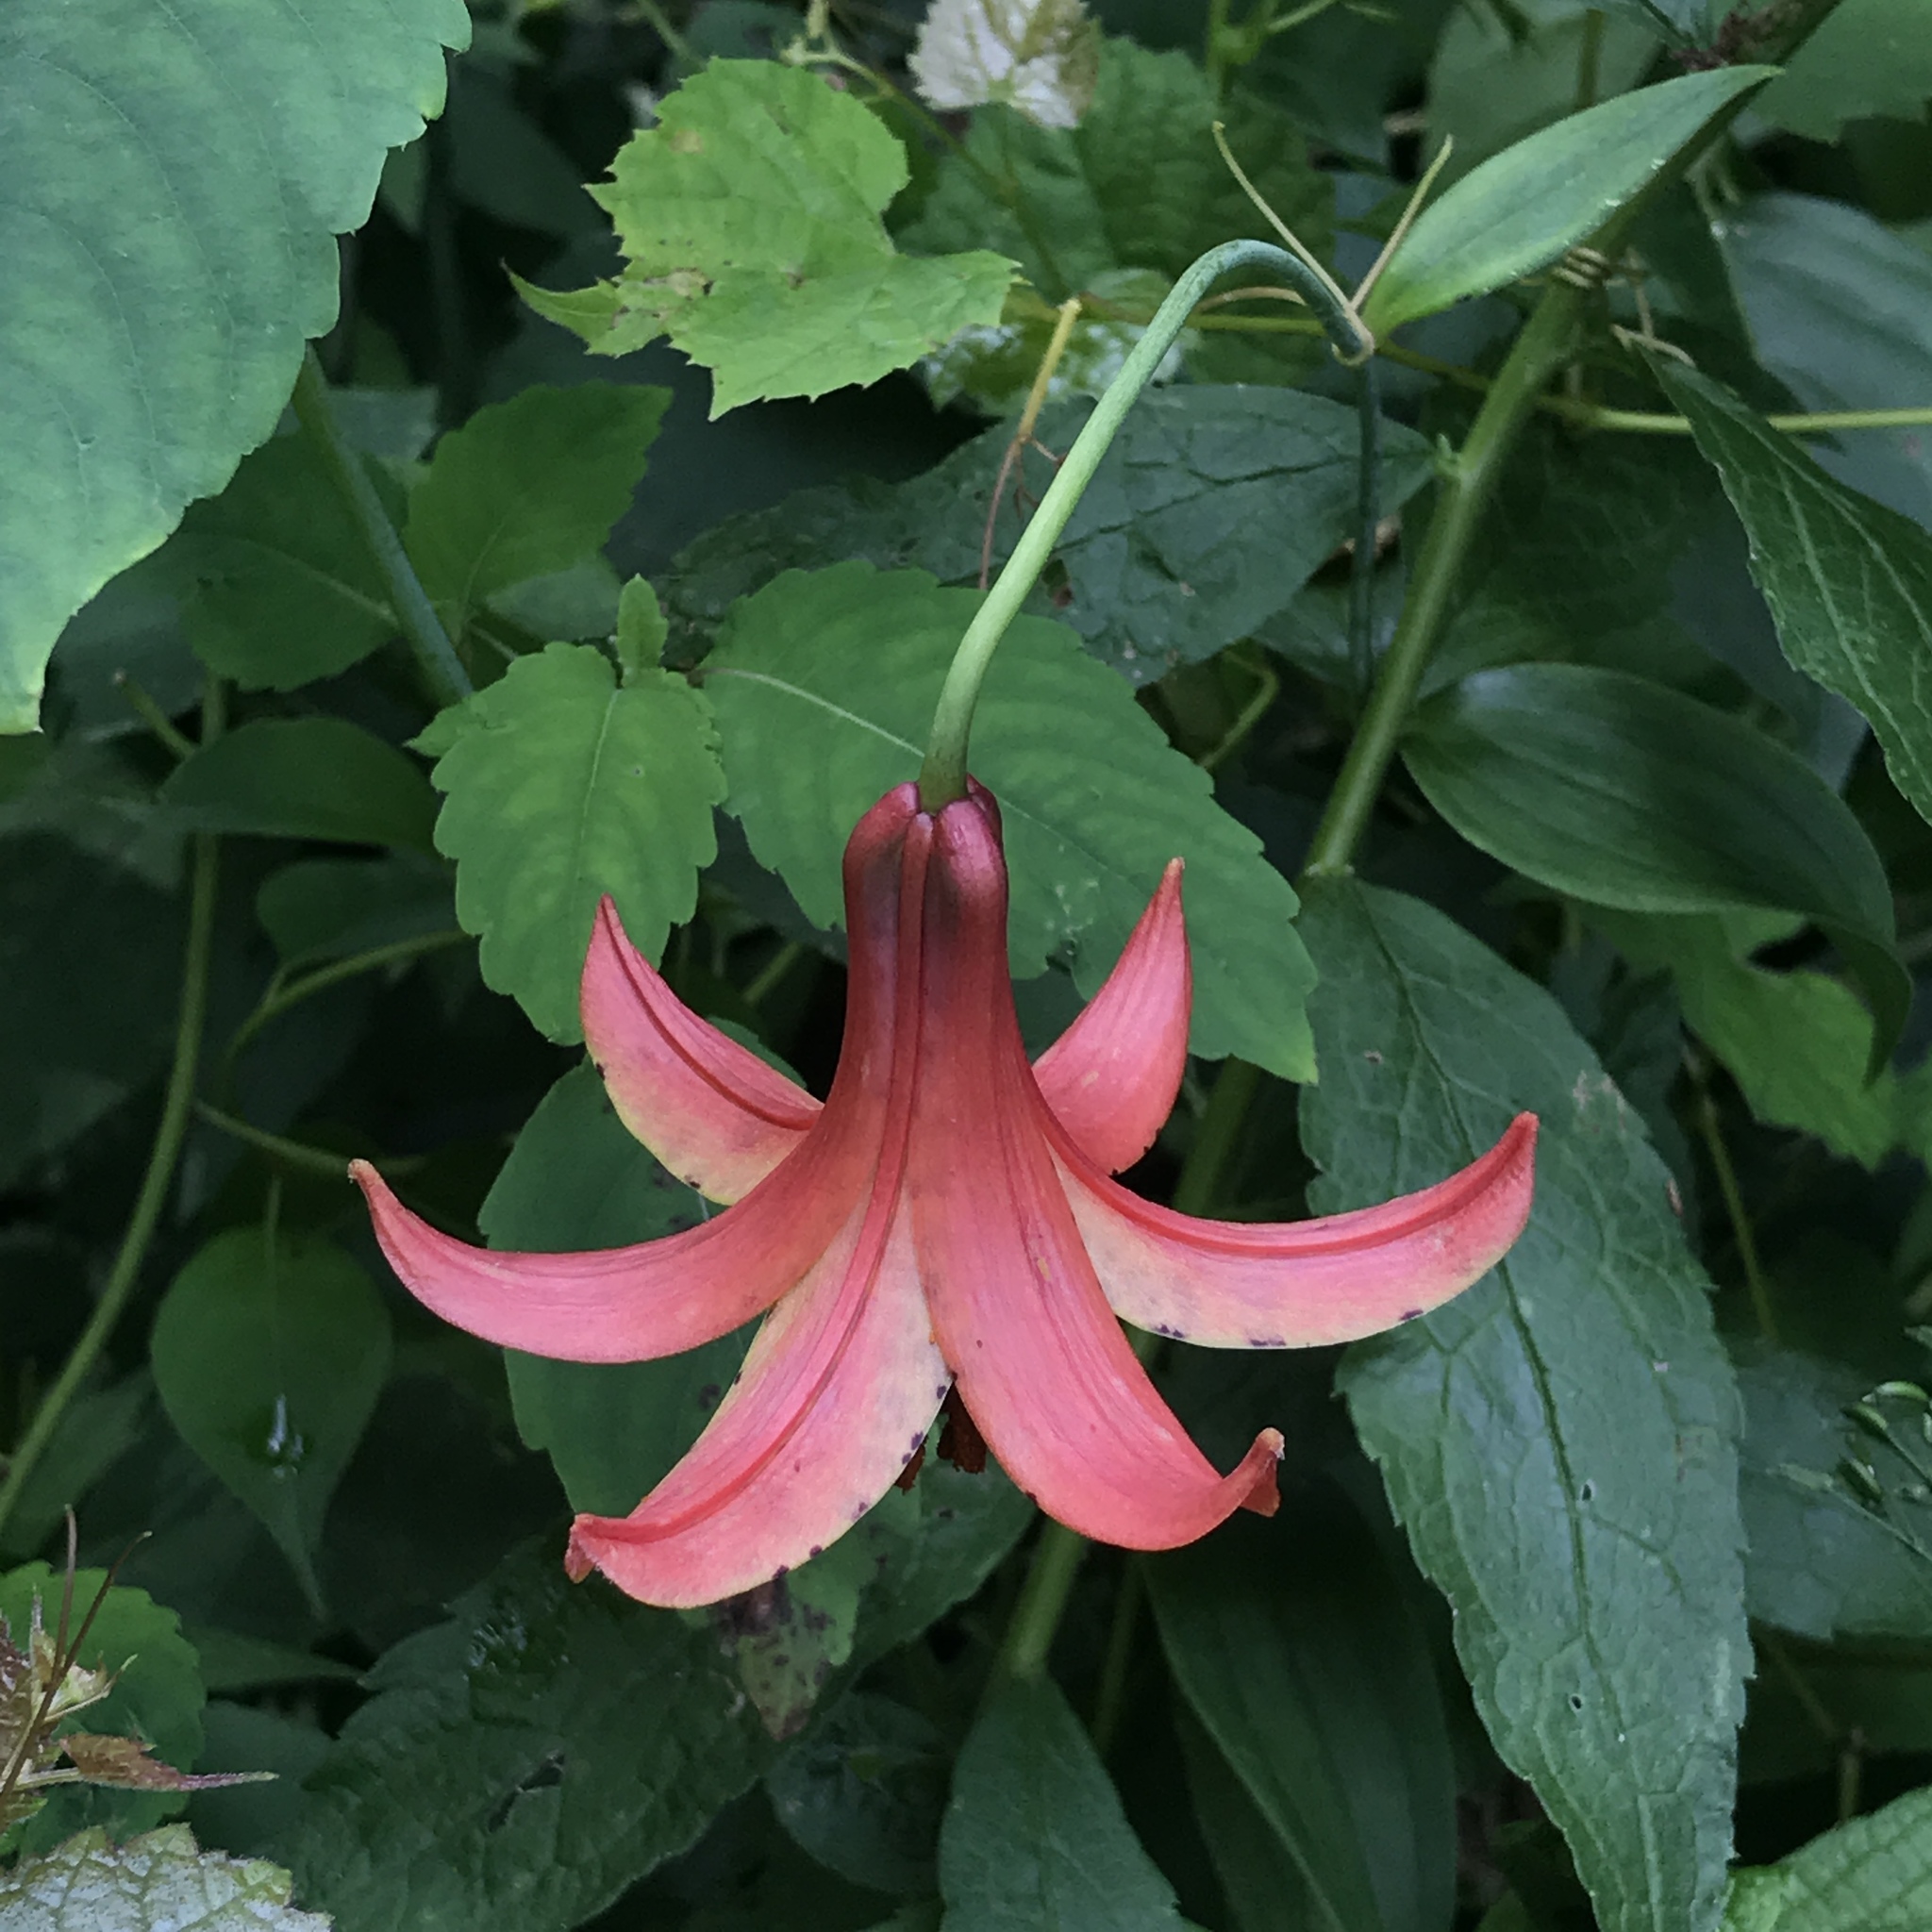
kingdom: Plantae
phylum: Tracheophyta
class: Liliopsida
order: Liliales
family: Liliaceae
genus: Lilium
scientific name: Lilium canadense
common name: Canada lily
